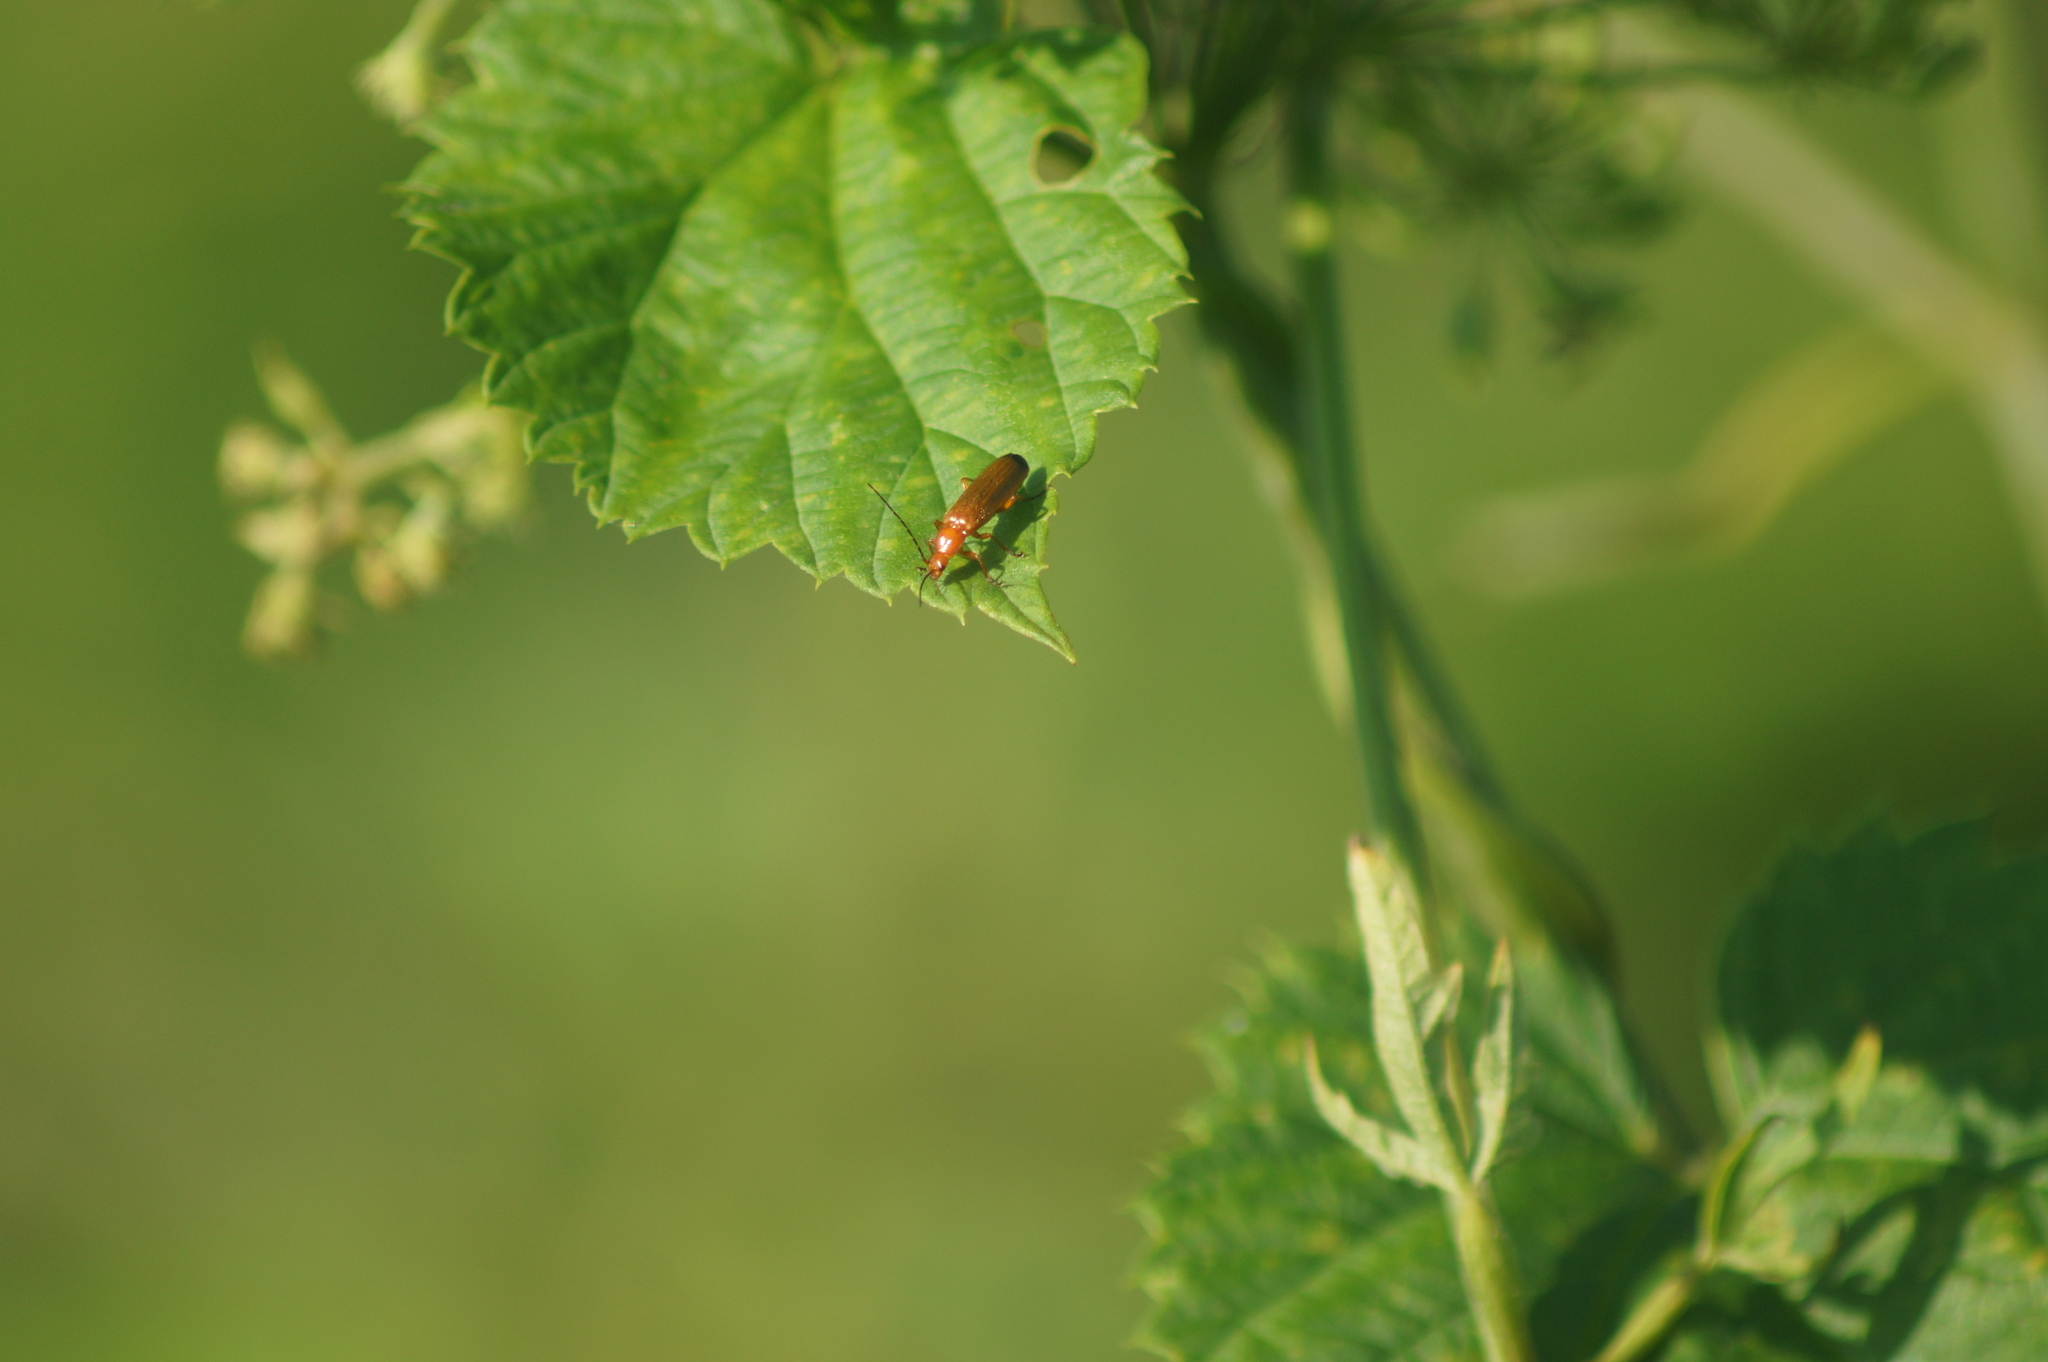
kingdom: Animalia
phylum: Arthropoda
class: Insecta
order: Coleoptera
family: Cantharidae
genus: Rhagonycha
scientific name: Rhagonycha fulva
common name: Common red soldier beetle
